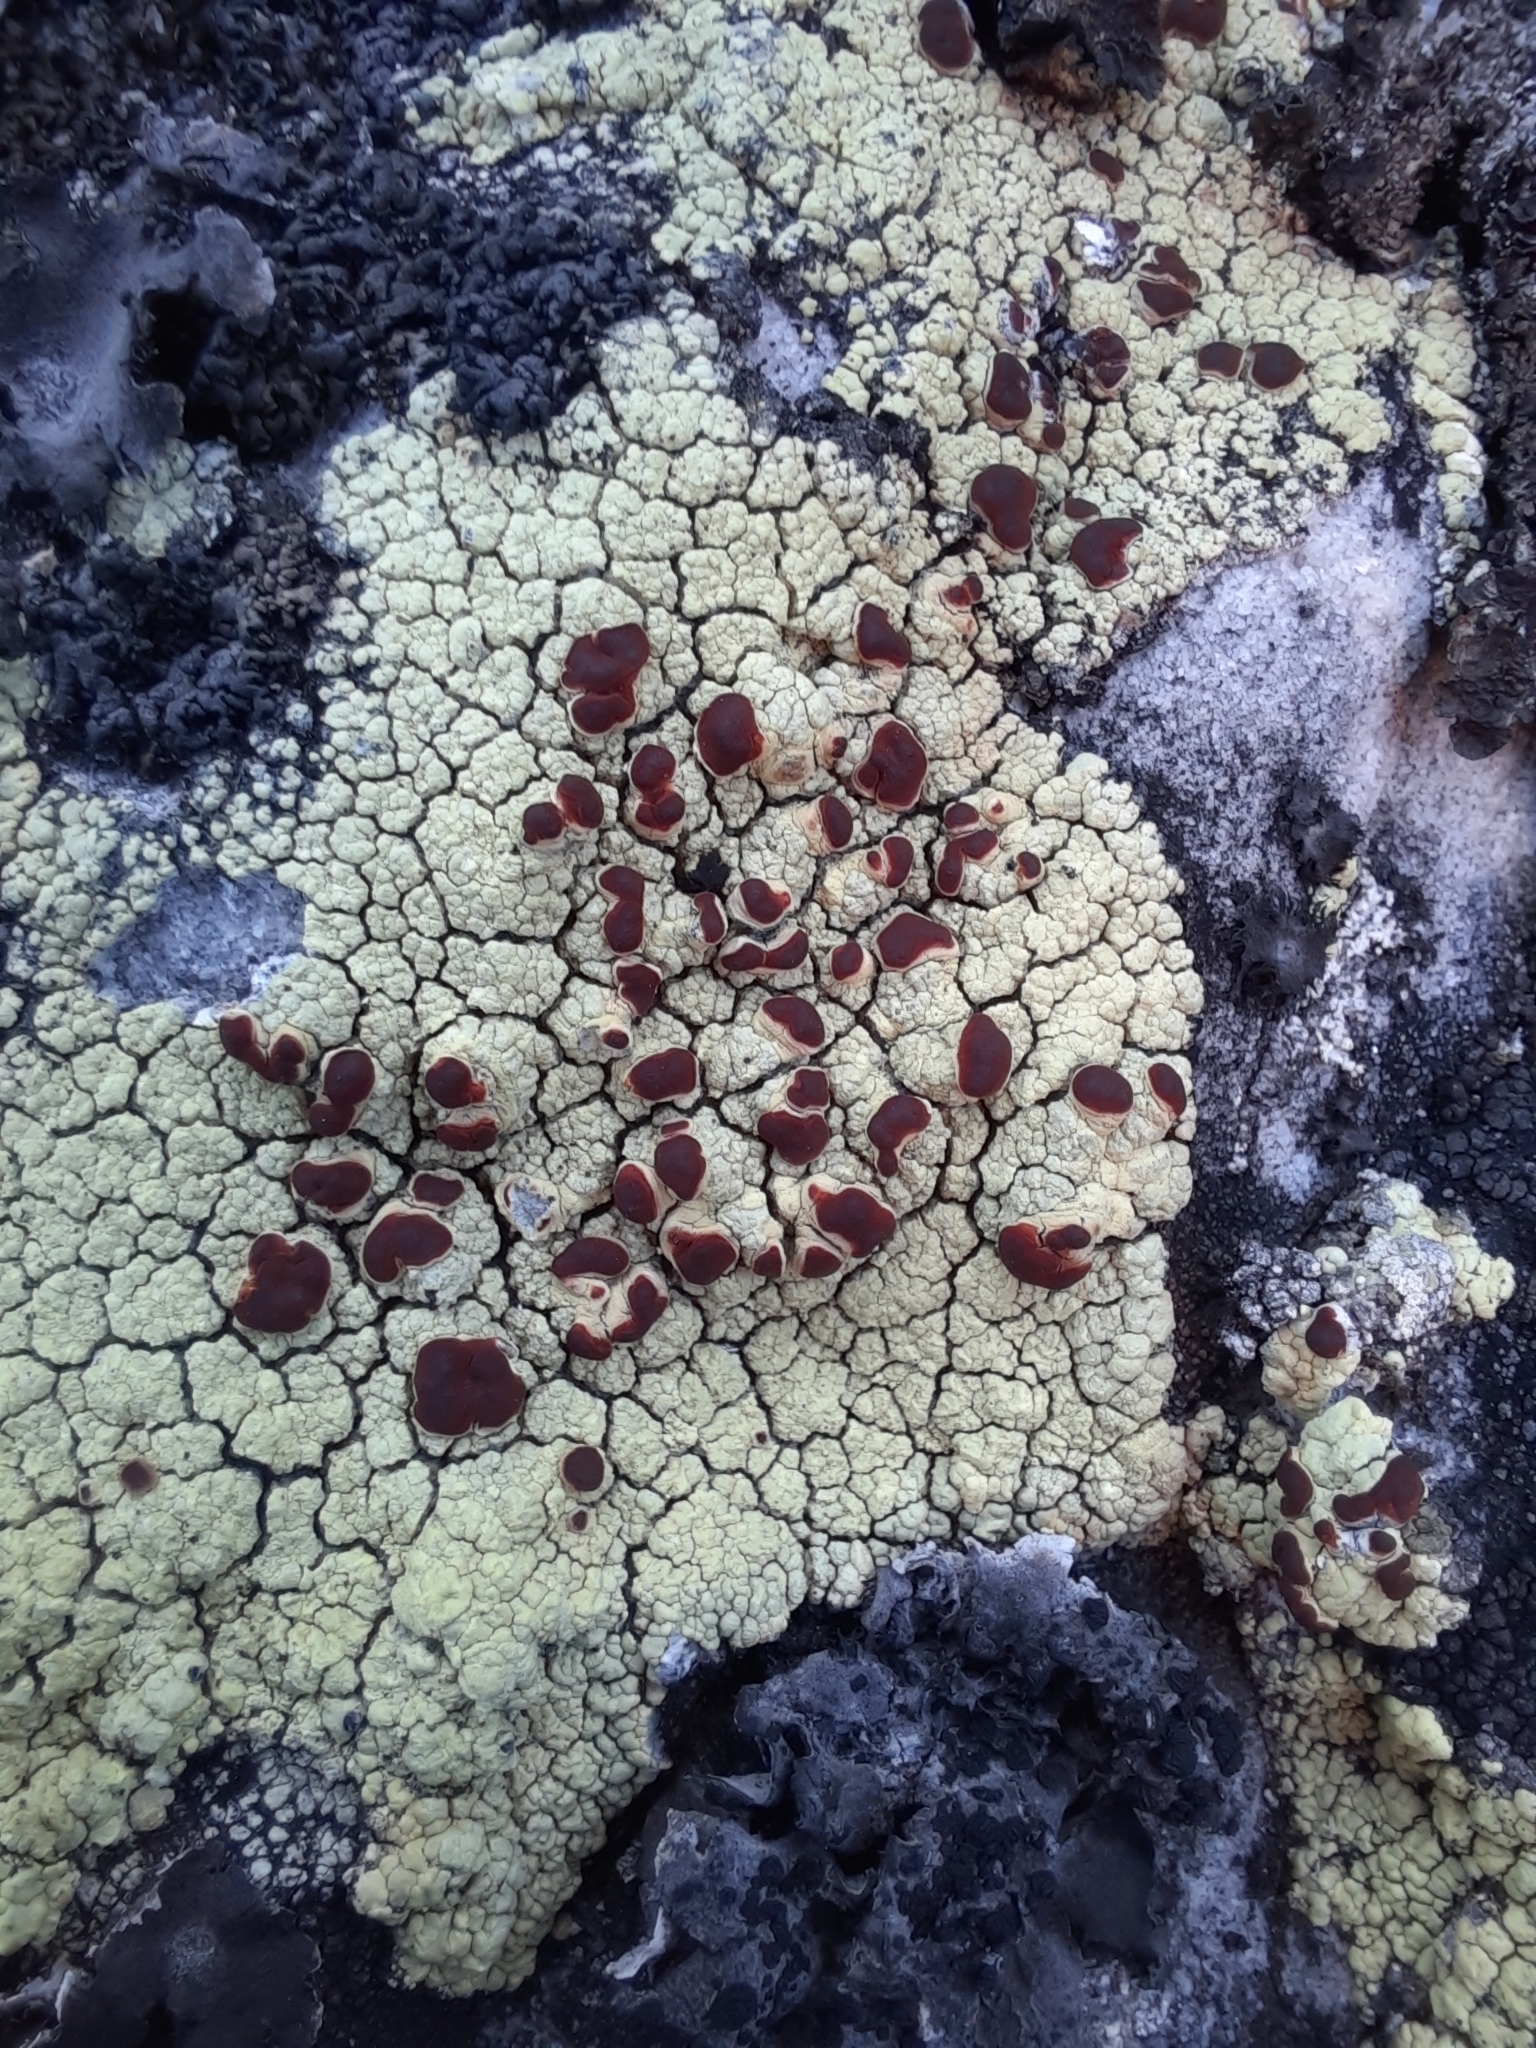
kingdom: Fungi
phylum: Ascomycota
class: Lecanoromycetes
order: Umbilicariales
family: Ophioparmaceae
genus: Ophioparma
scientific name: Ophioparma ventosa
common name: Blood-spot
